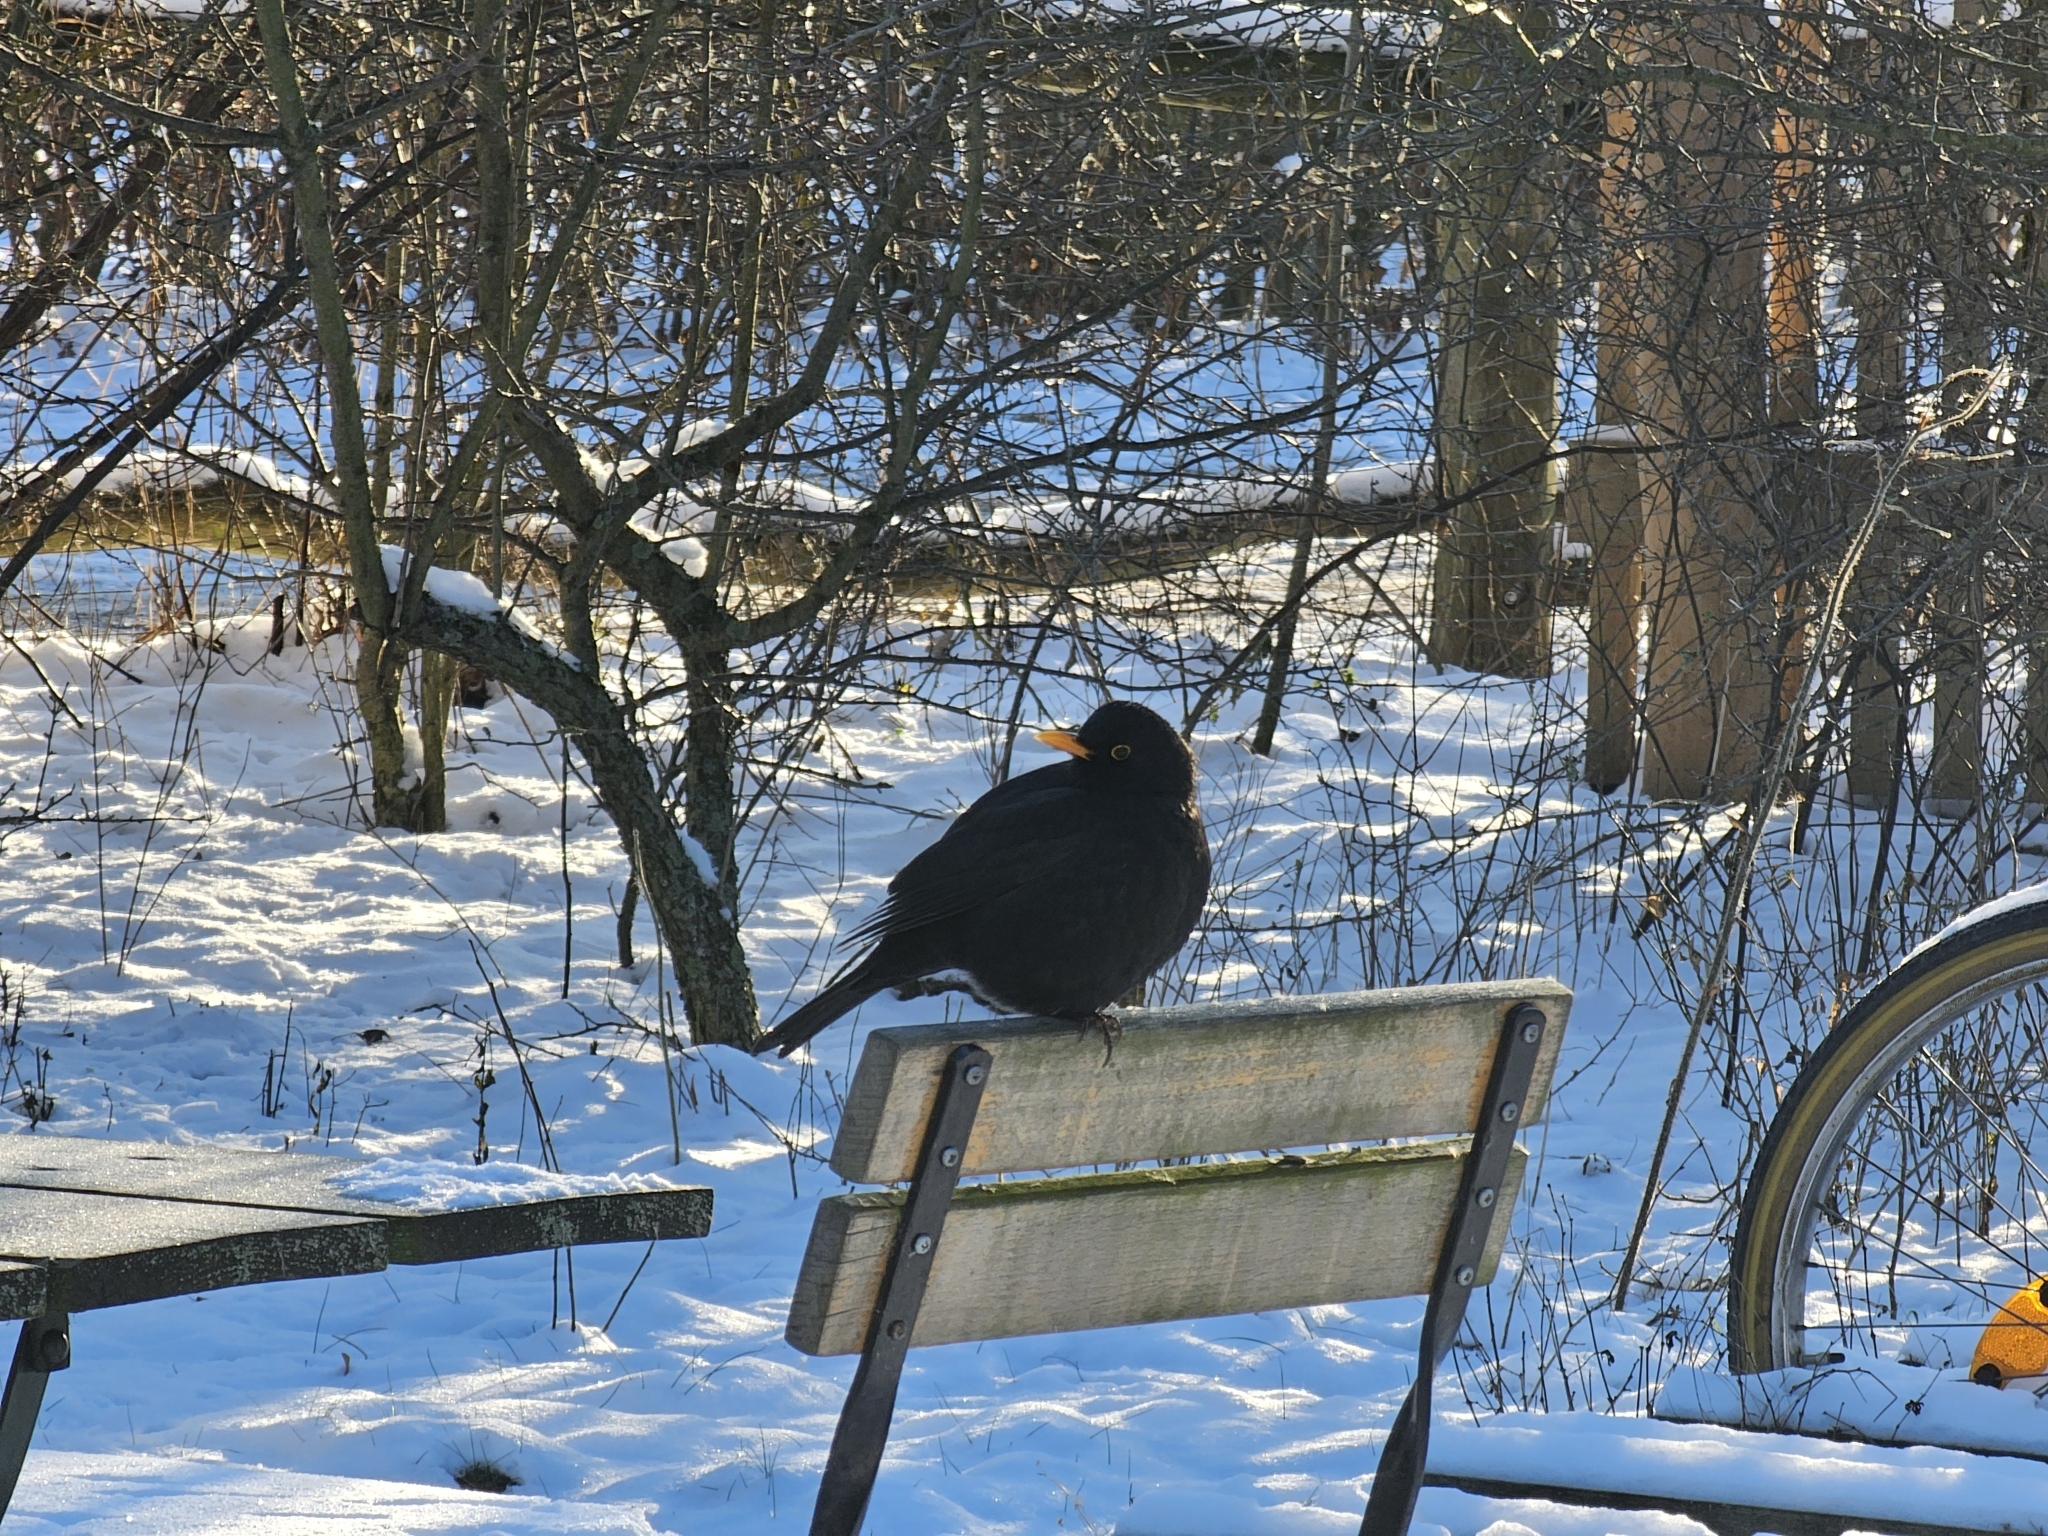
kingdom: Animalia
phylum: Chordata
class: Aves
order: Passeriformes
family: Turdidae
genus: Turdus
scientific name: Turdus merula
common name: Common blackbird
